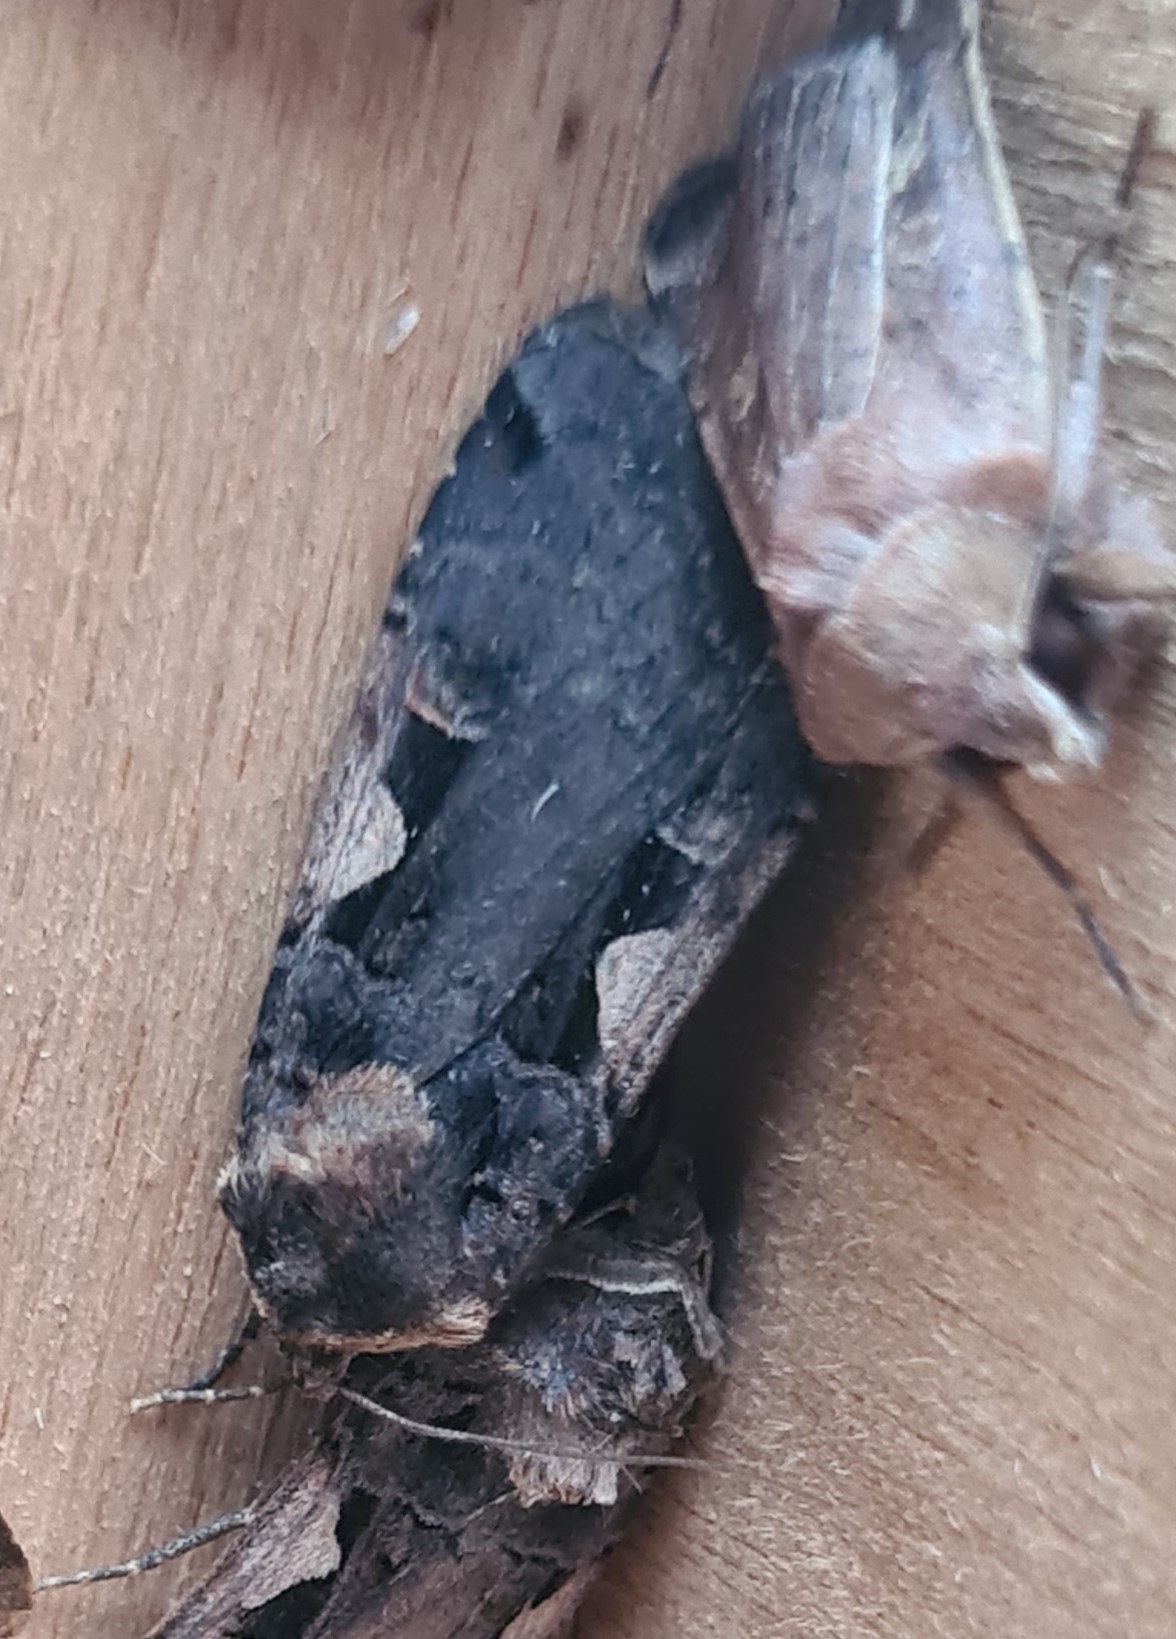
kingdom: Animalia
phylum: Arthropoda
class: Insecta
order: Lepidoptera
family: Noctuidae
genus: Xestia
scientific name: Xestia c-nigrum
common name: Setaceous hebrew character
